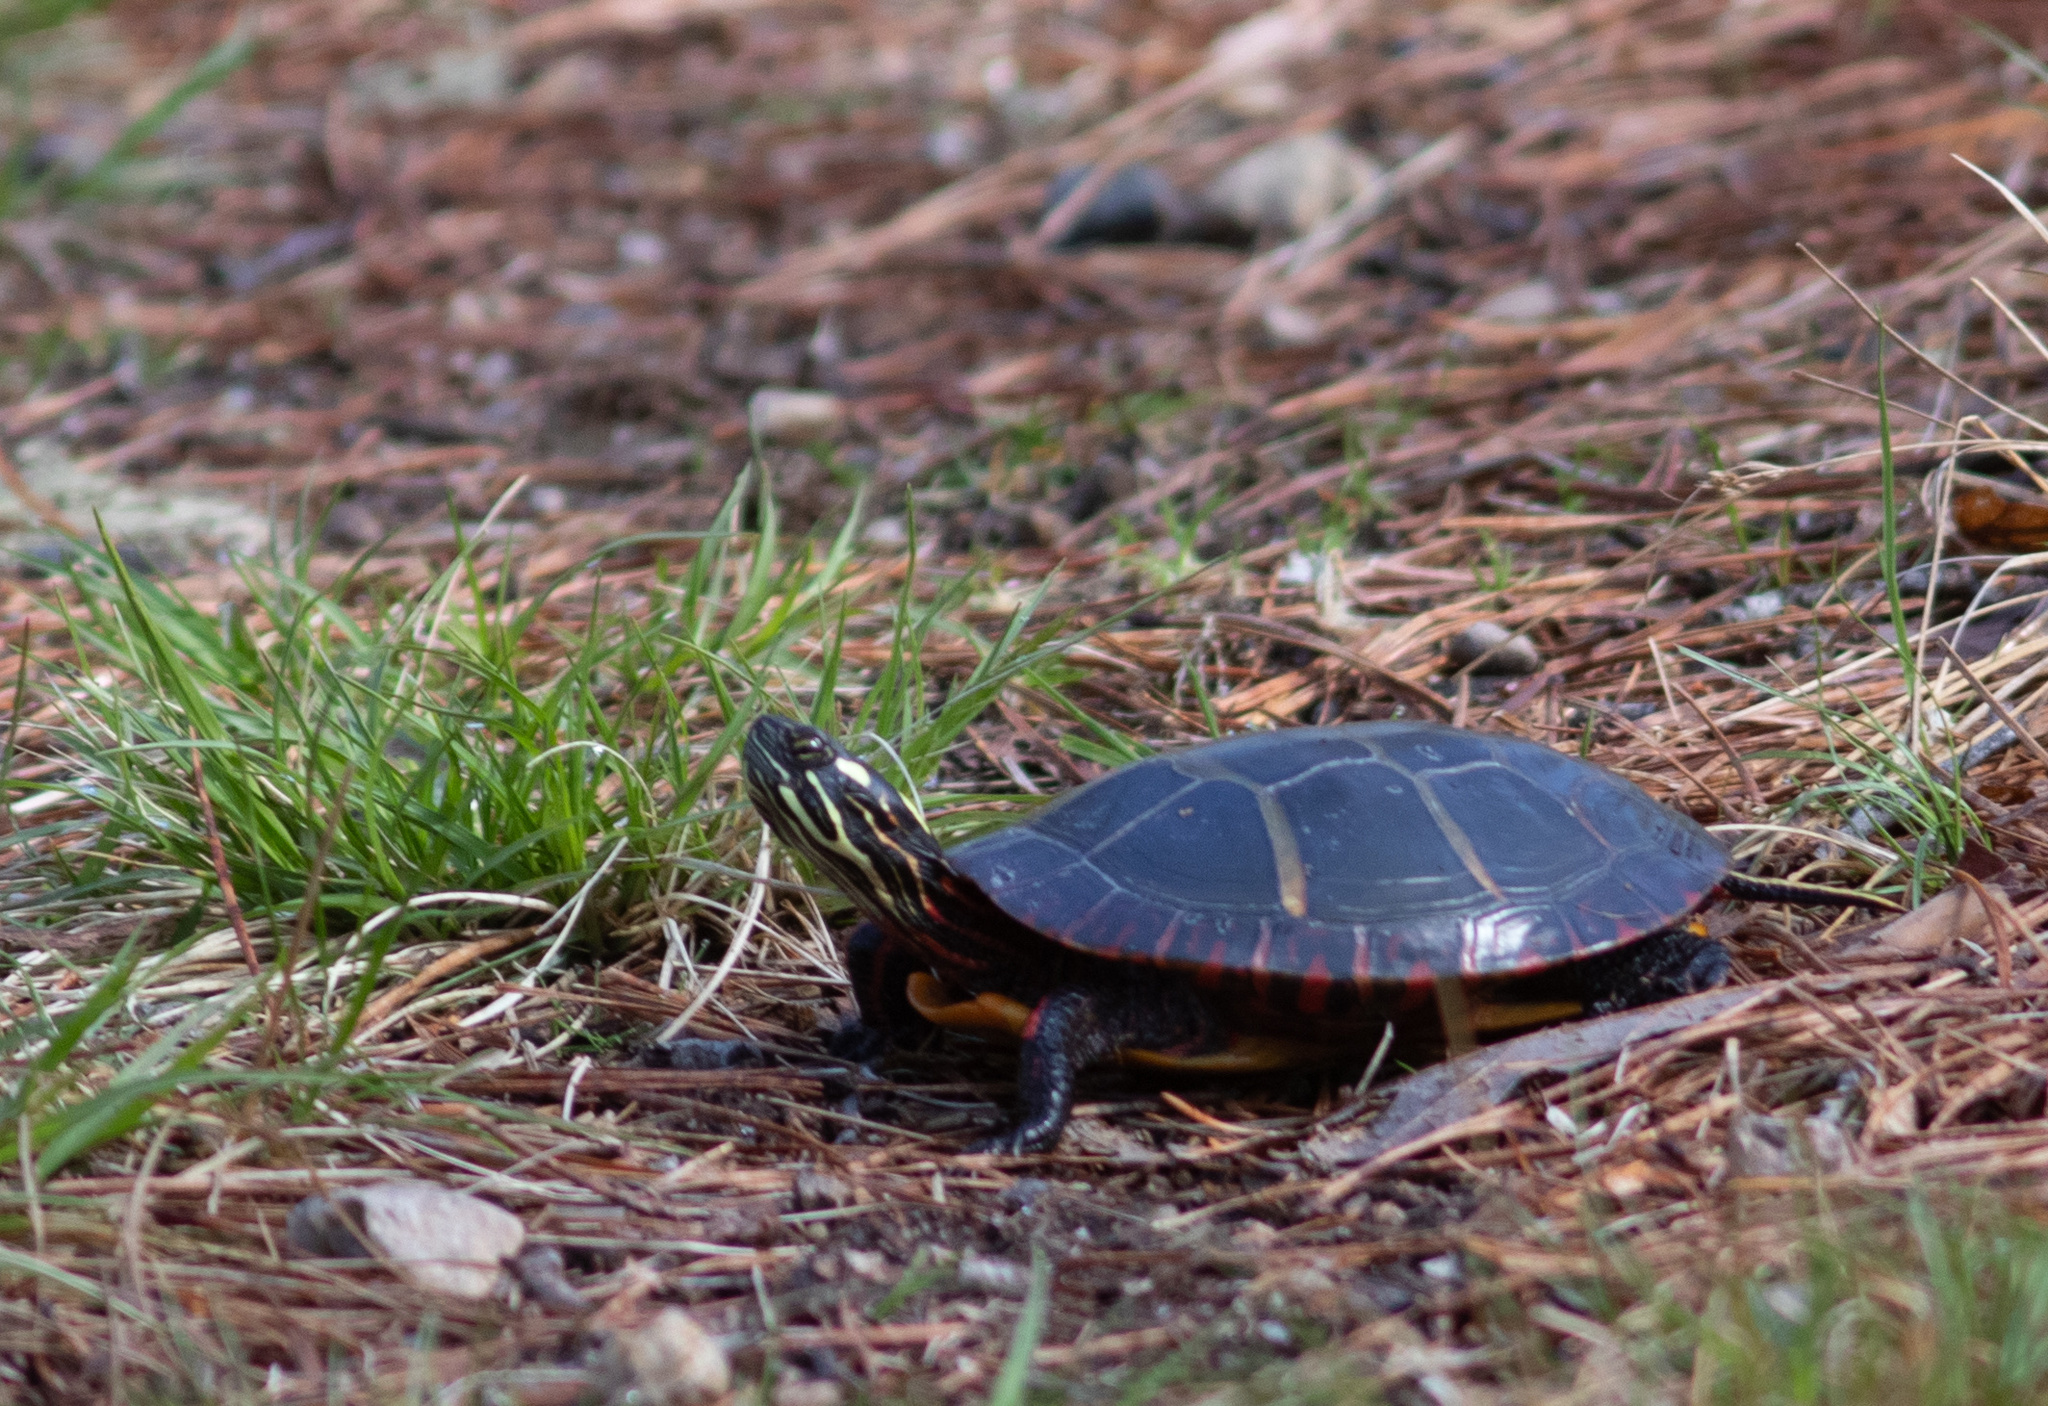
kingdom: Animalia
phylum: Chordata
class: Testudines
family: Emydidae
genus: Chrysemys
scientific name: Chrysemys picta
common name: Painted turtle
